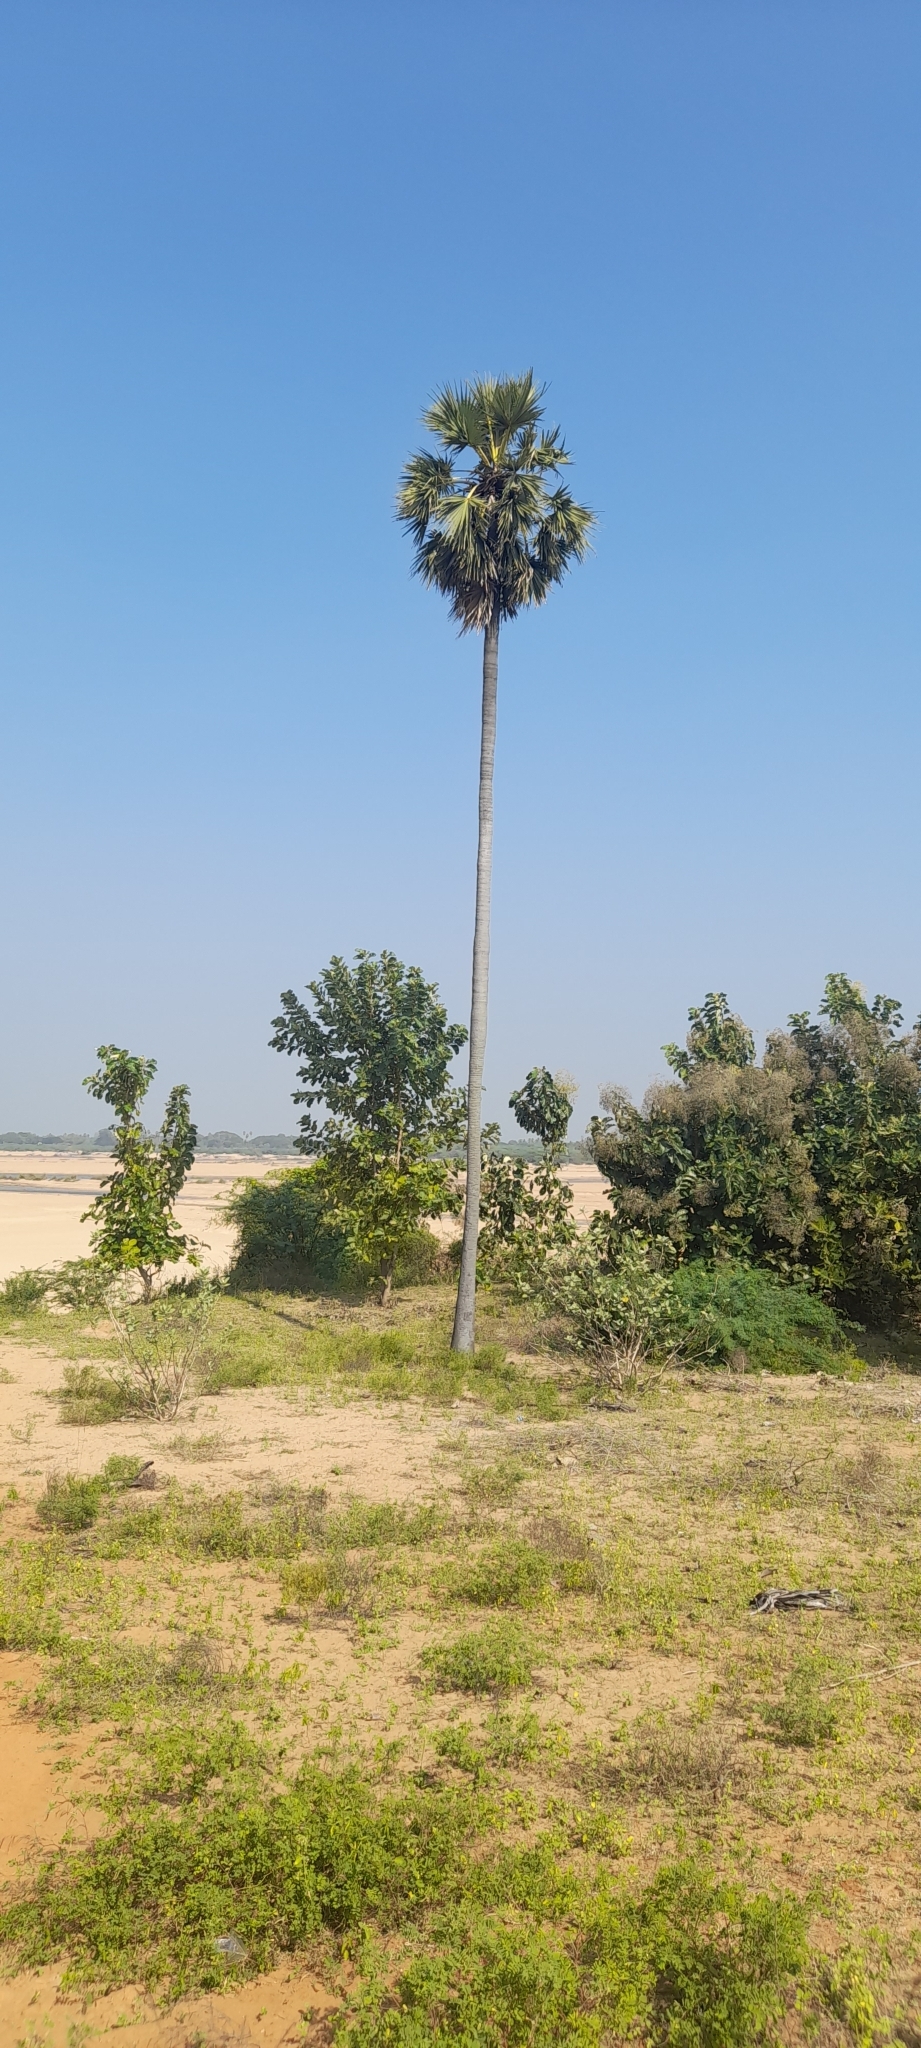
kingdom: Plantae
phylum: Tracheophyta
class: Liliopsida
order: Arecales
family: Arecaceae
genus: Borassus
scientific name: Borassus flabellifer
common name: Palmyra palm
